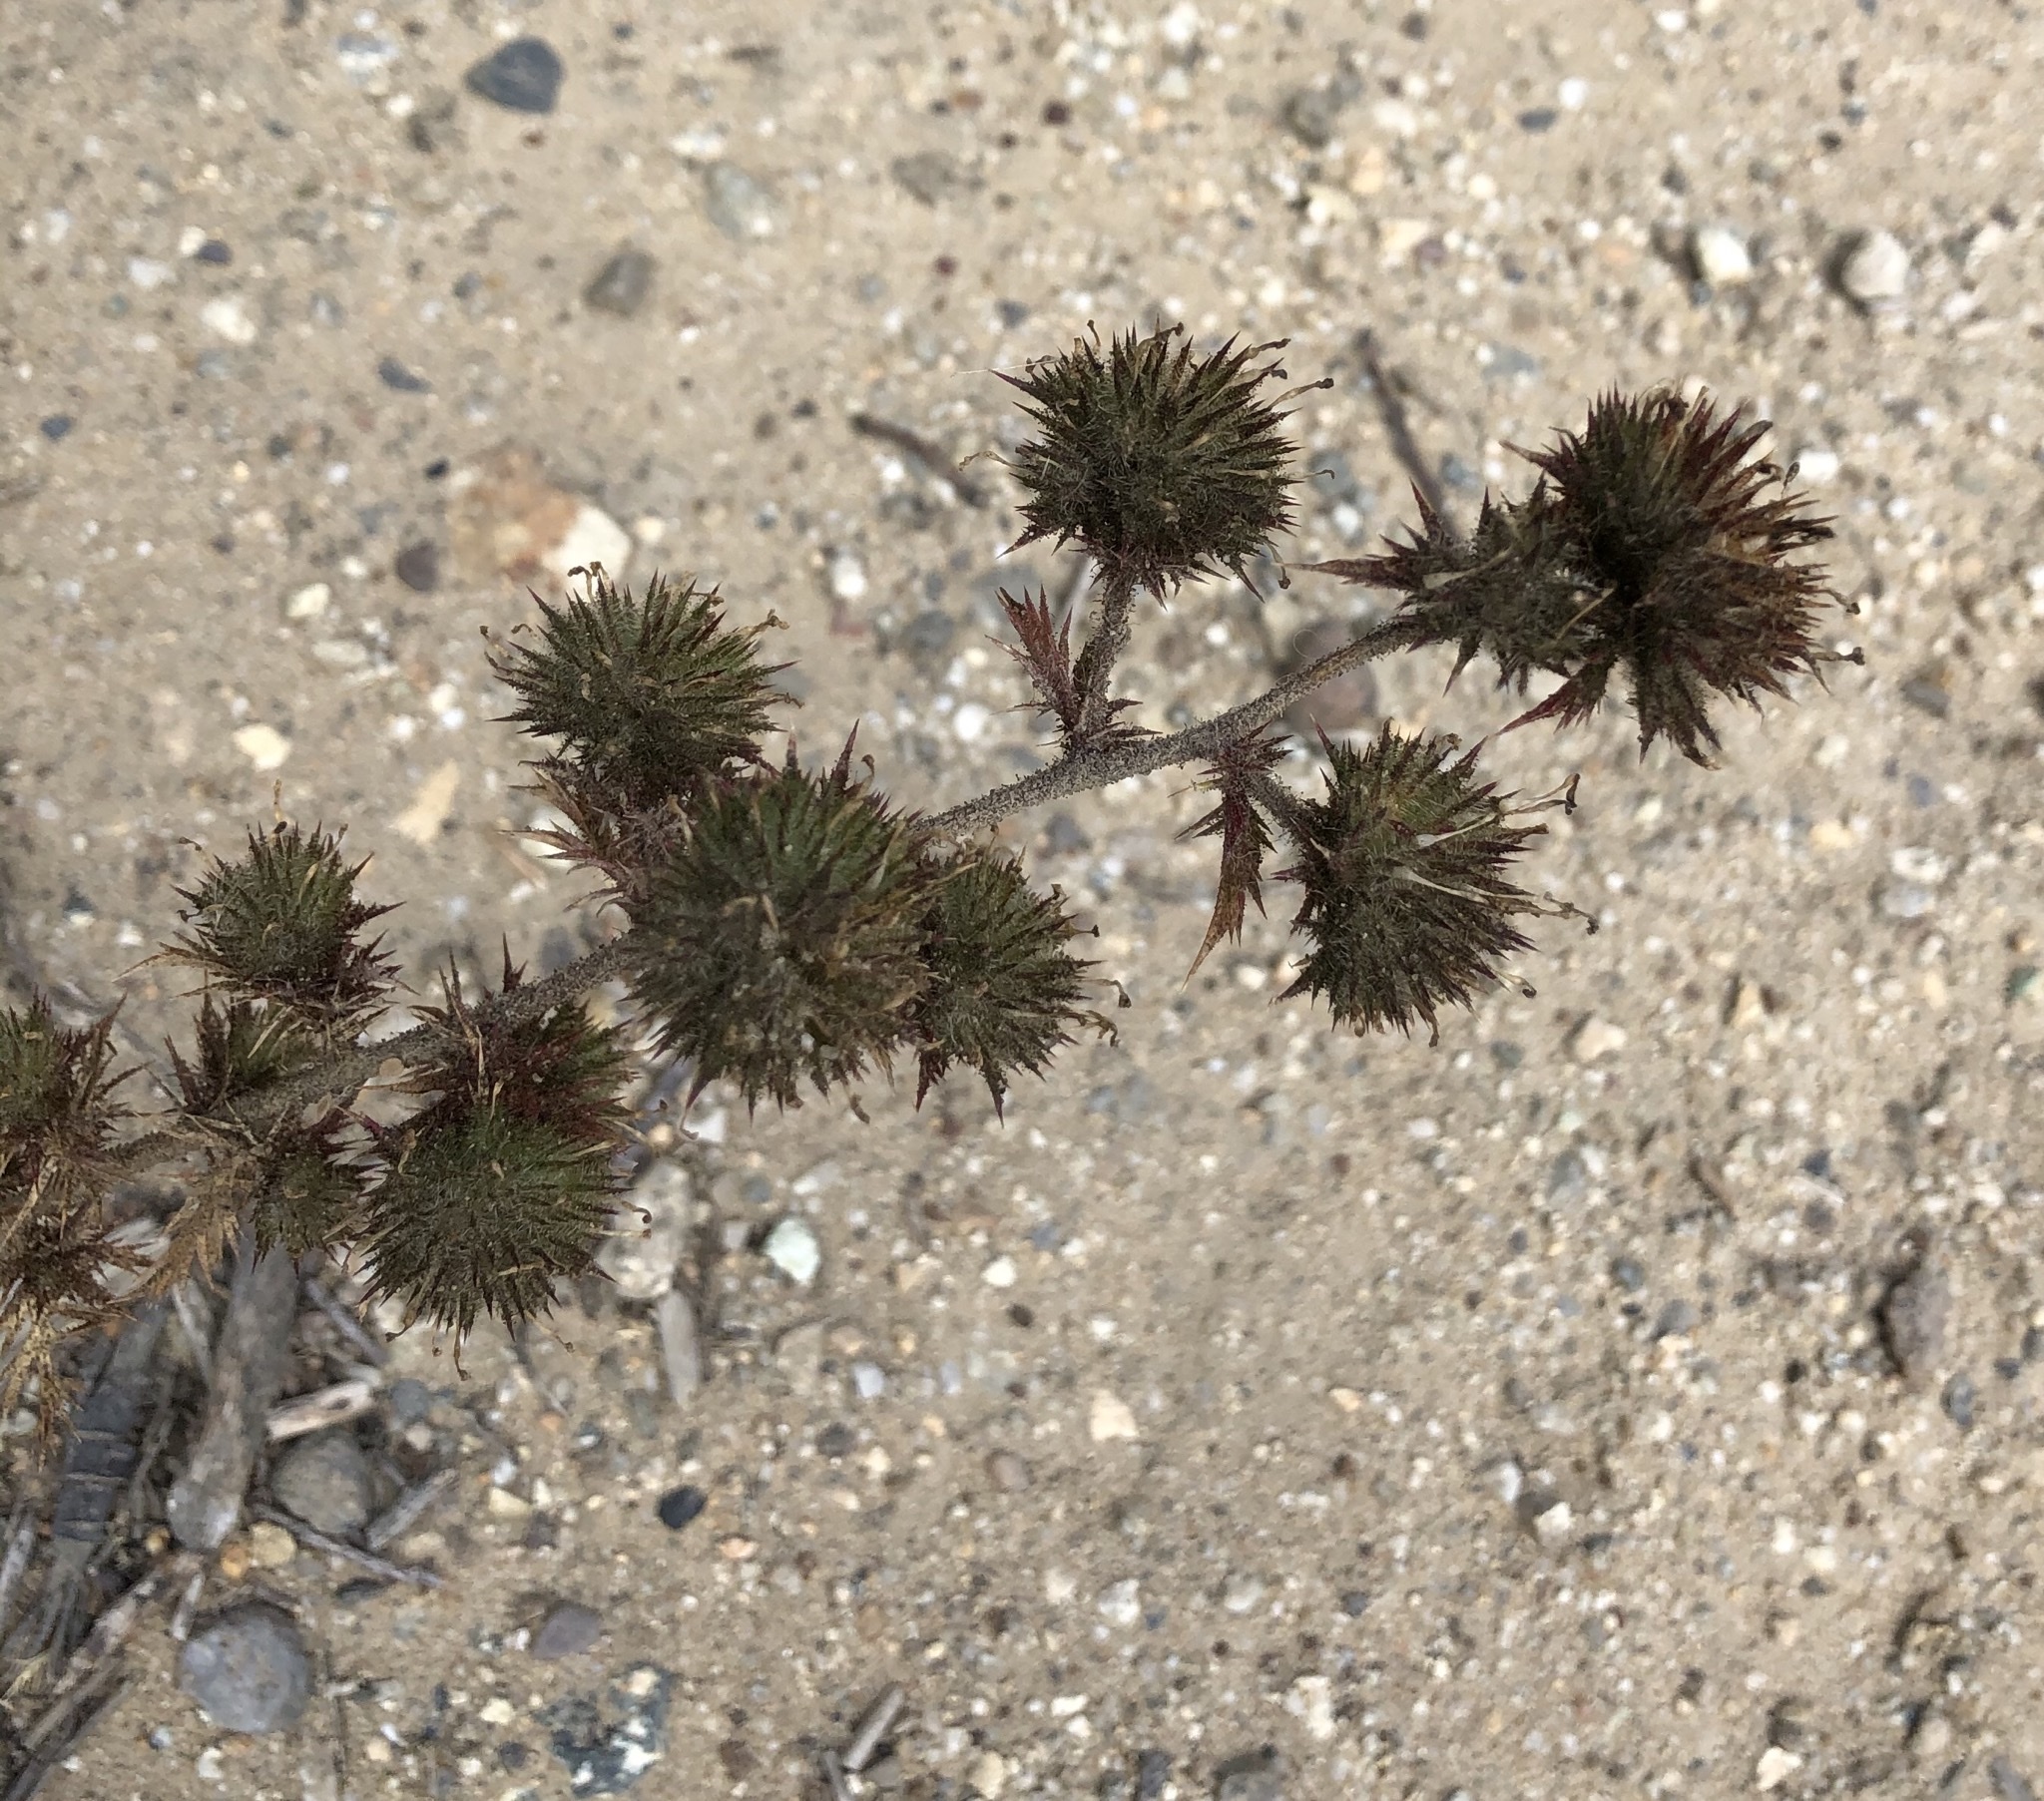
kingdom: Plantae
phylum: Tracheophyta
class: Magnoliopsida
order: Ericales
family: Polemoniaceae
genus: Navarretia
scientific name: Navarretia squarrosa
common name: Skunkweed
